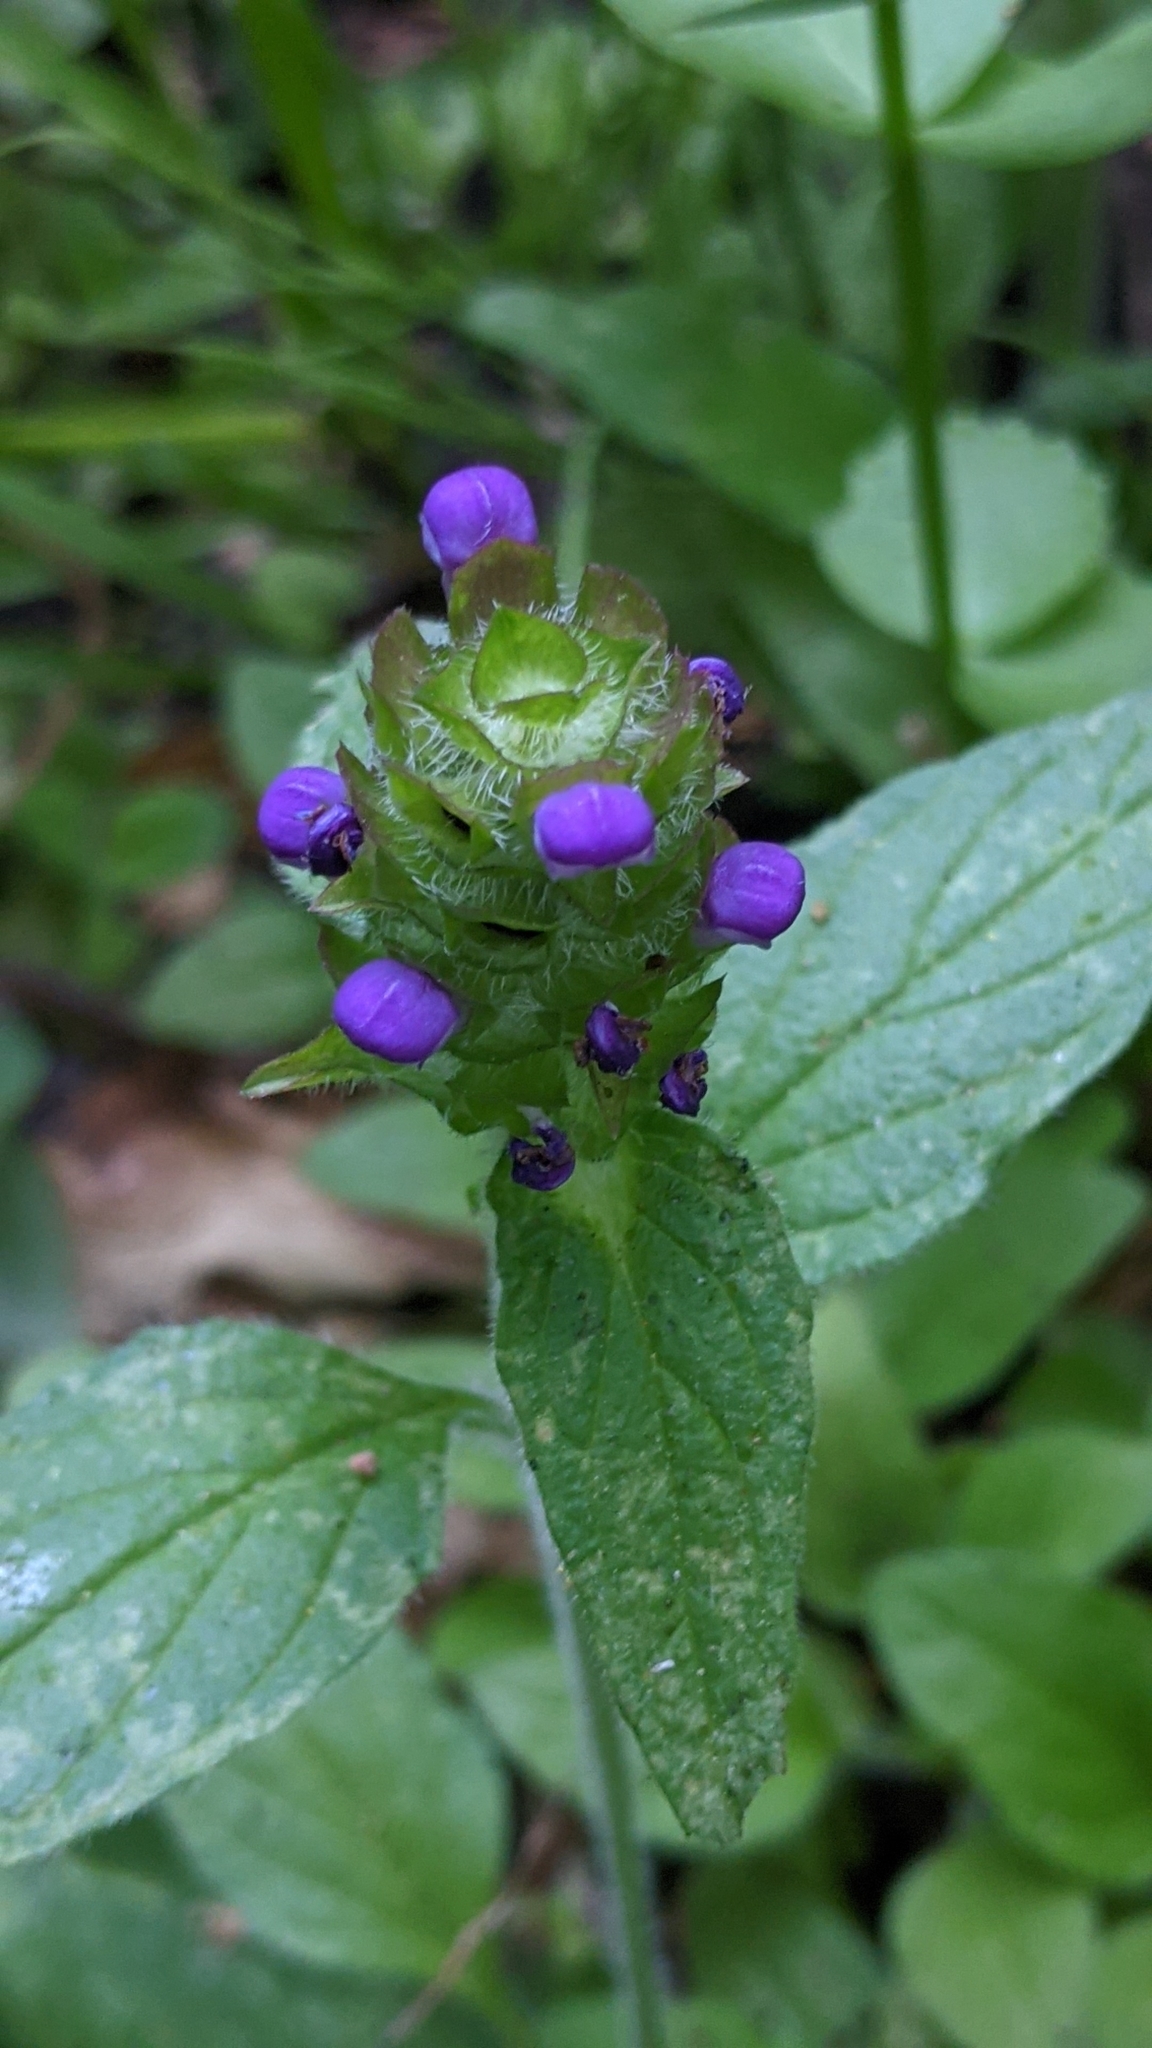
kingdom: Plantae
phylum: Tracheophyta
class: Magnoliopsida
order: Lamiales
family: Lamiaceae
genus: Prunella
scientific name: Prunella vulgaris
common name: Heal-all
